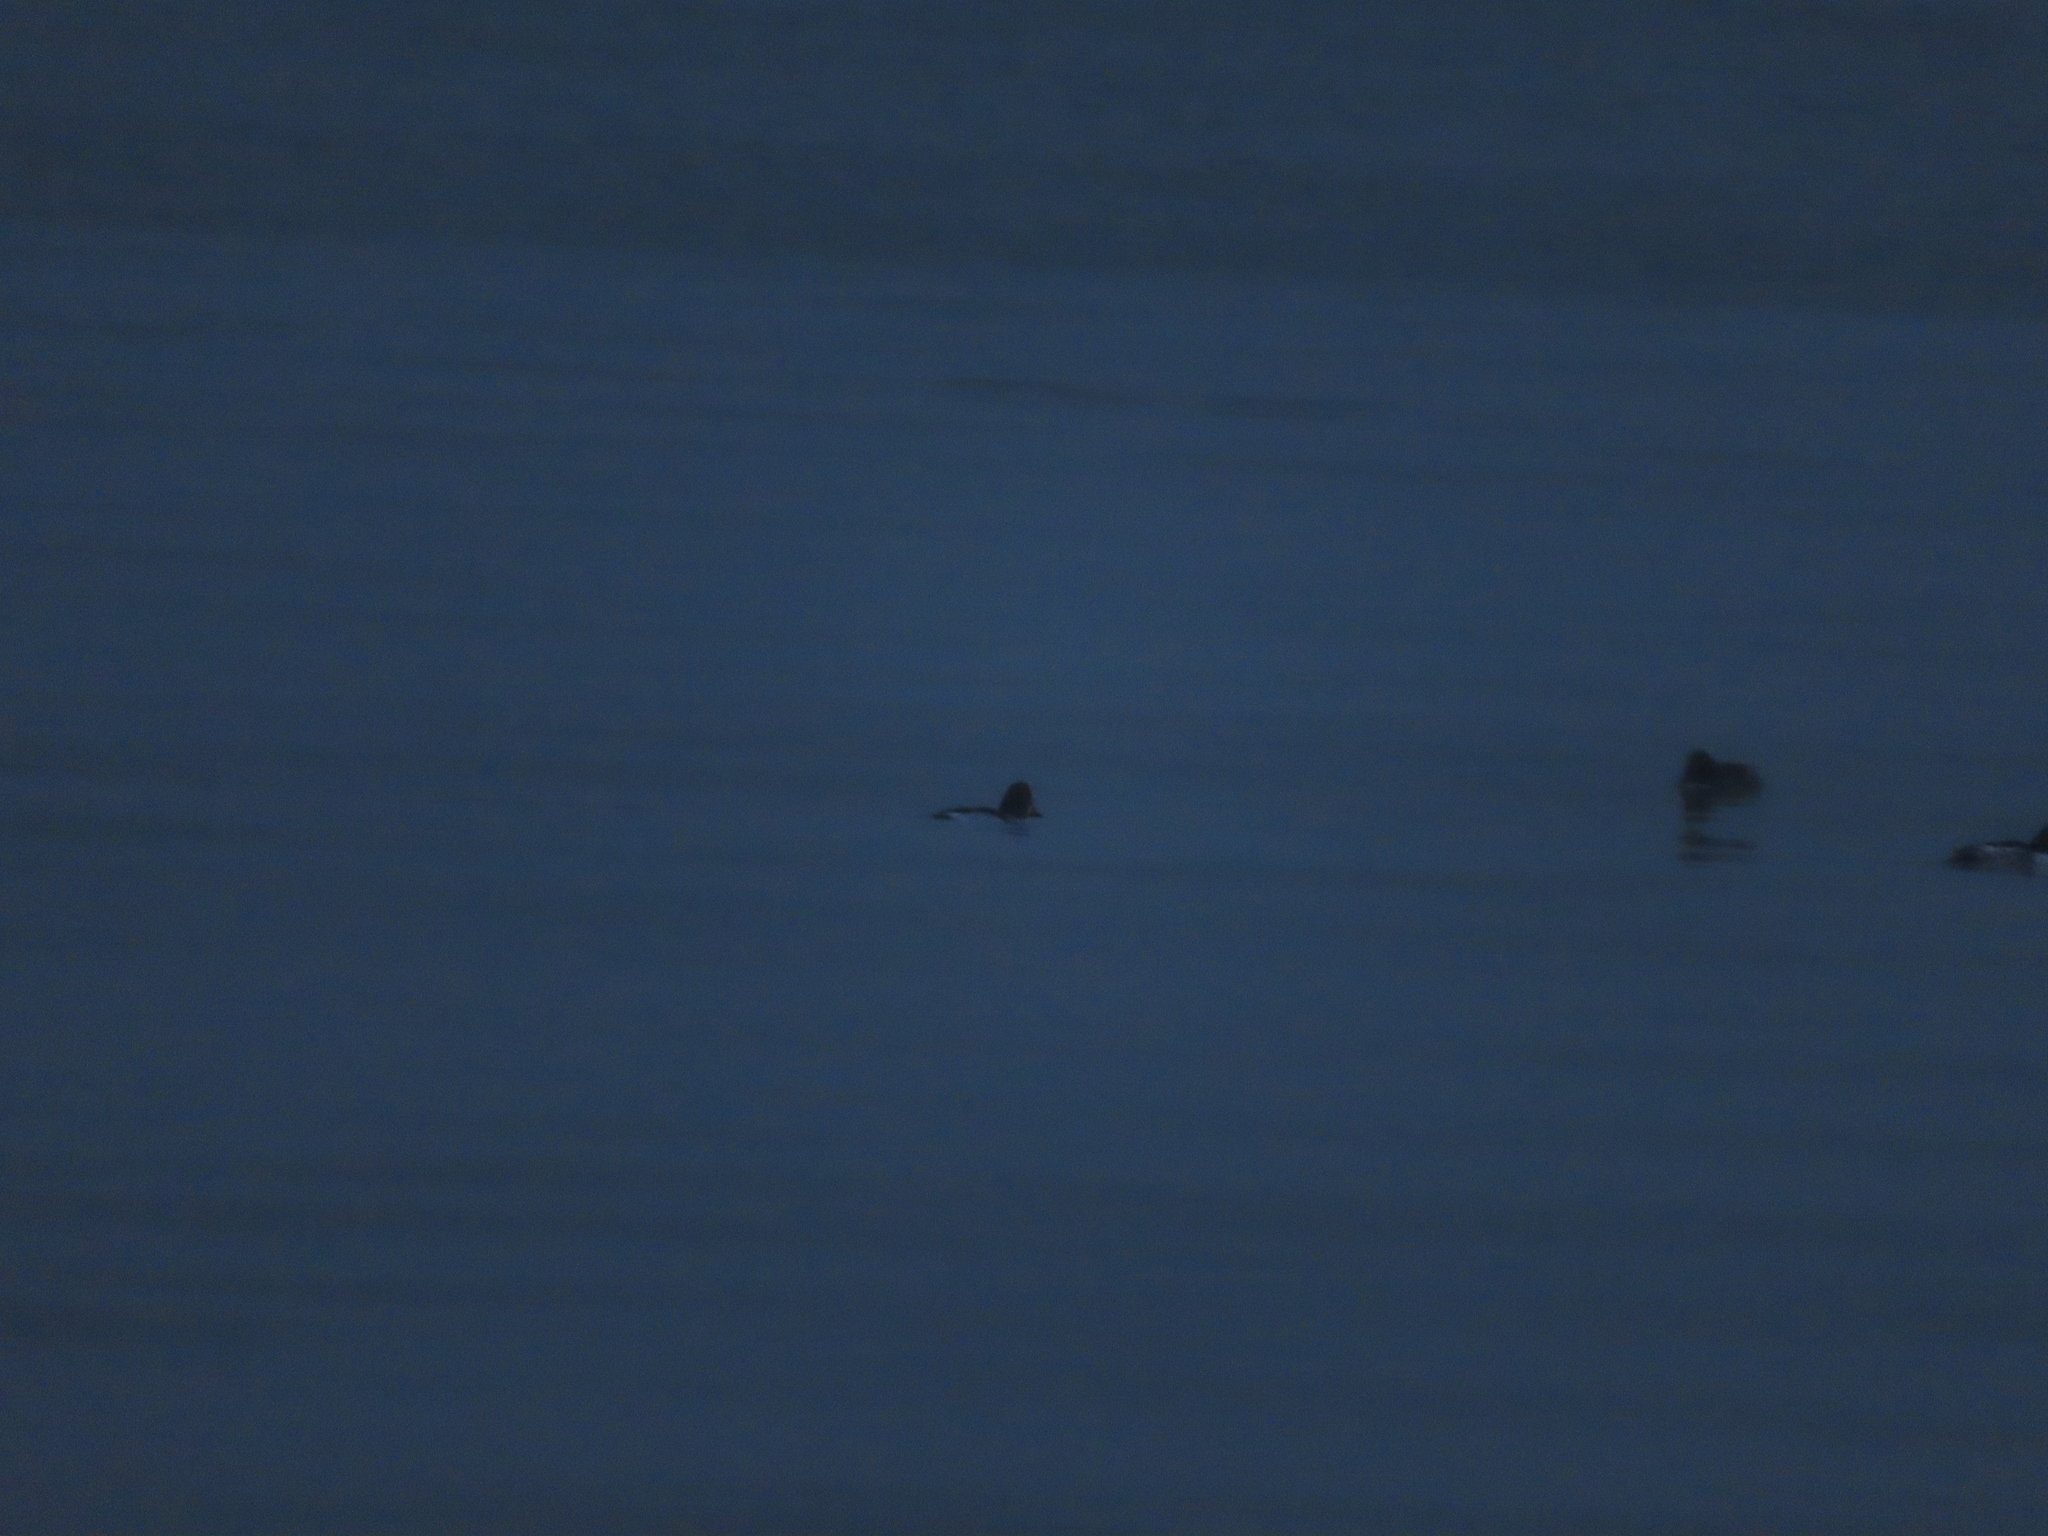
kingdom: Animalia
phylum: Chordata
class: Aves
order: Anseriformes
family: Anatidae
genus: Bucephala
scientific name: Bucephala clangula
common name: Common goldeneye
